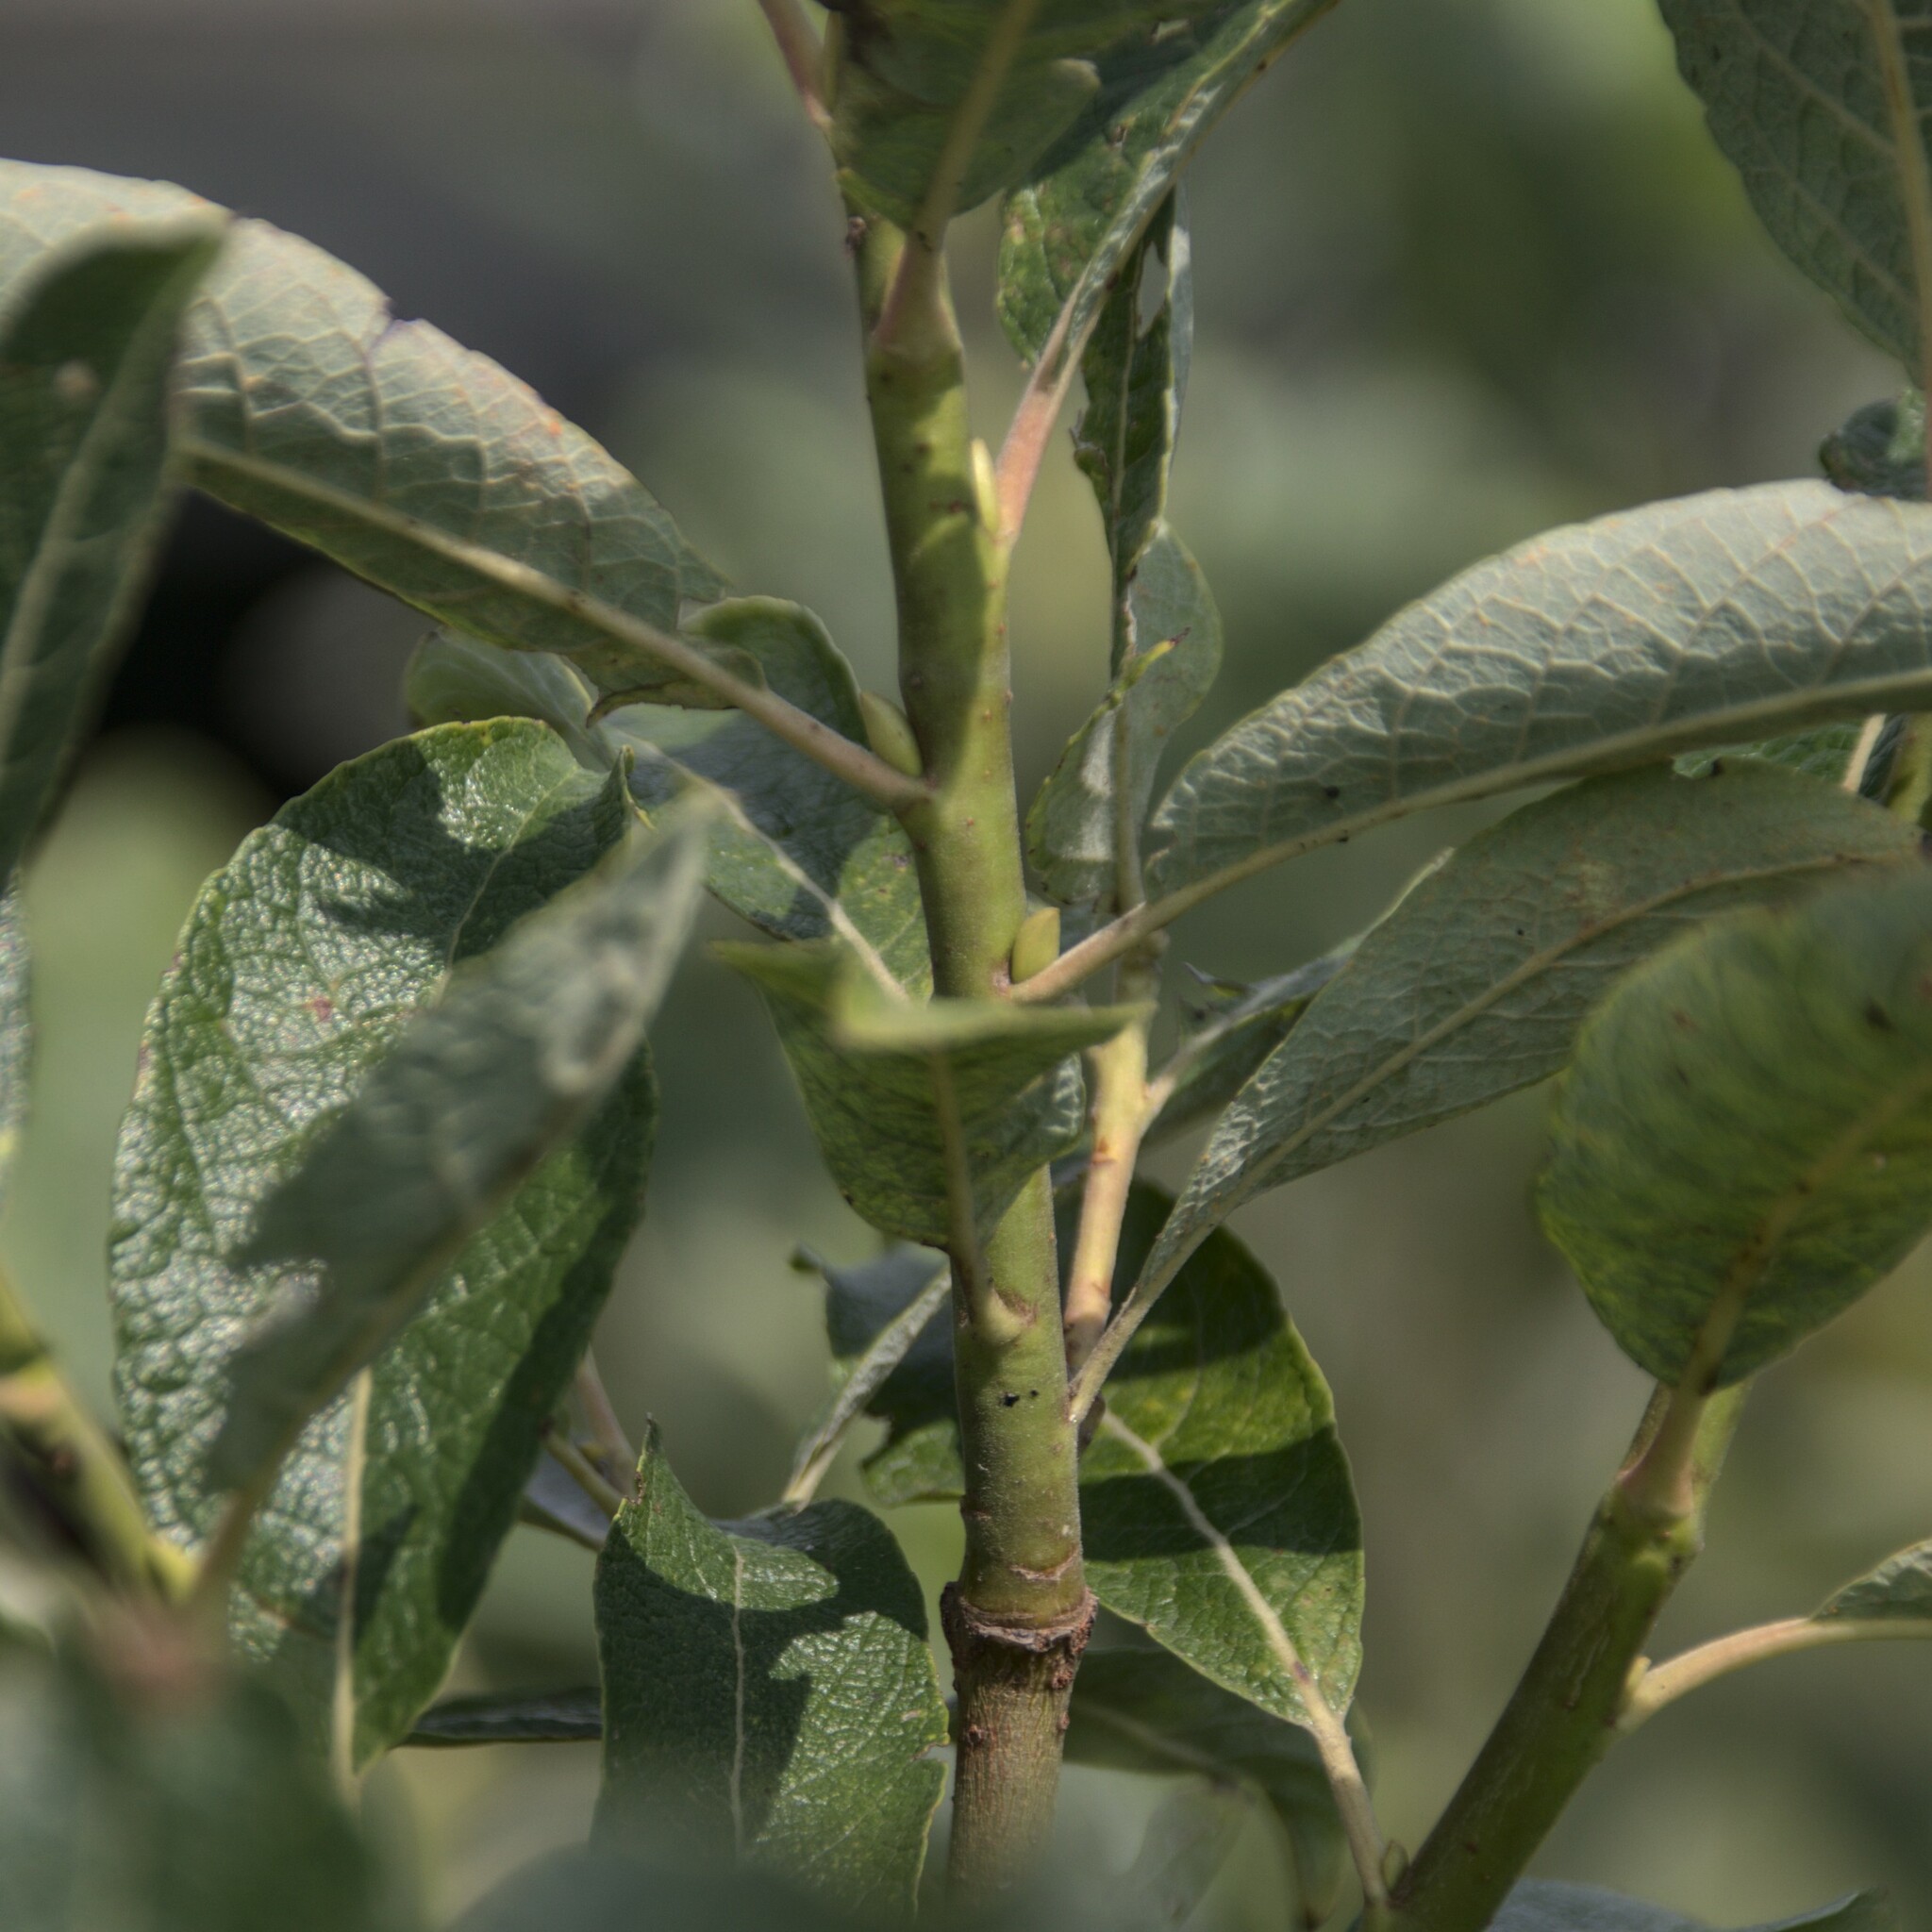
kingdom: Plantae
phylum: Tracheophyta
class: Magnoliopsida
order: Malpighiales
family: Salicaceae
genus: Salix
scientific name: Salix caprea
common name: Goat willow
